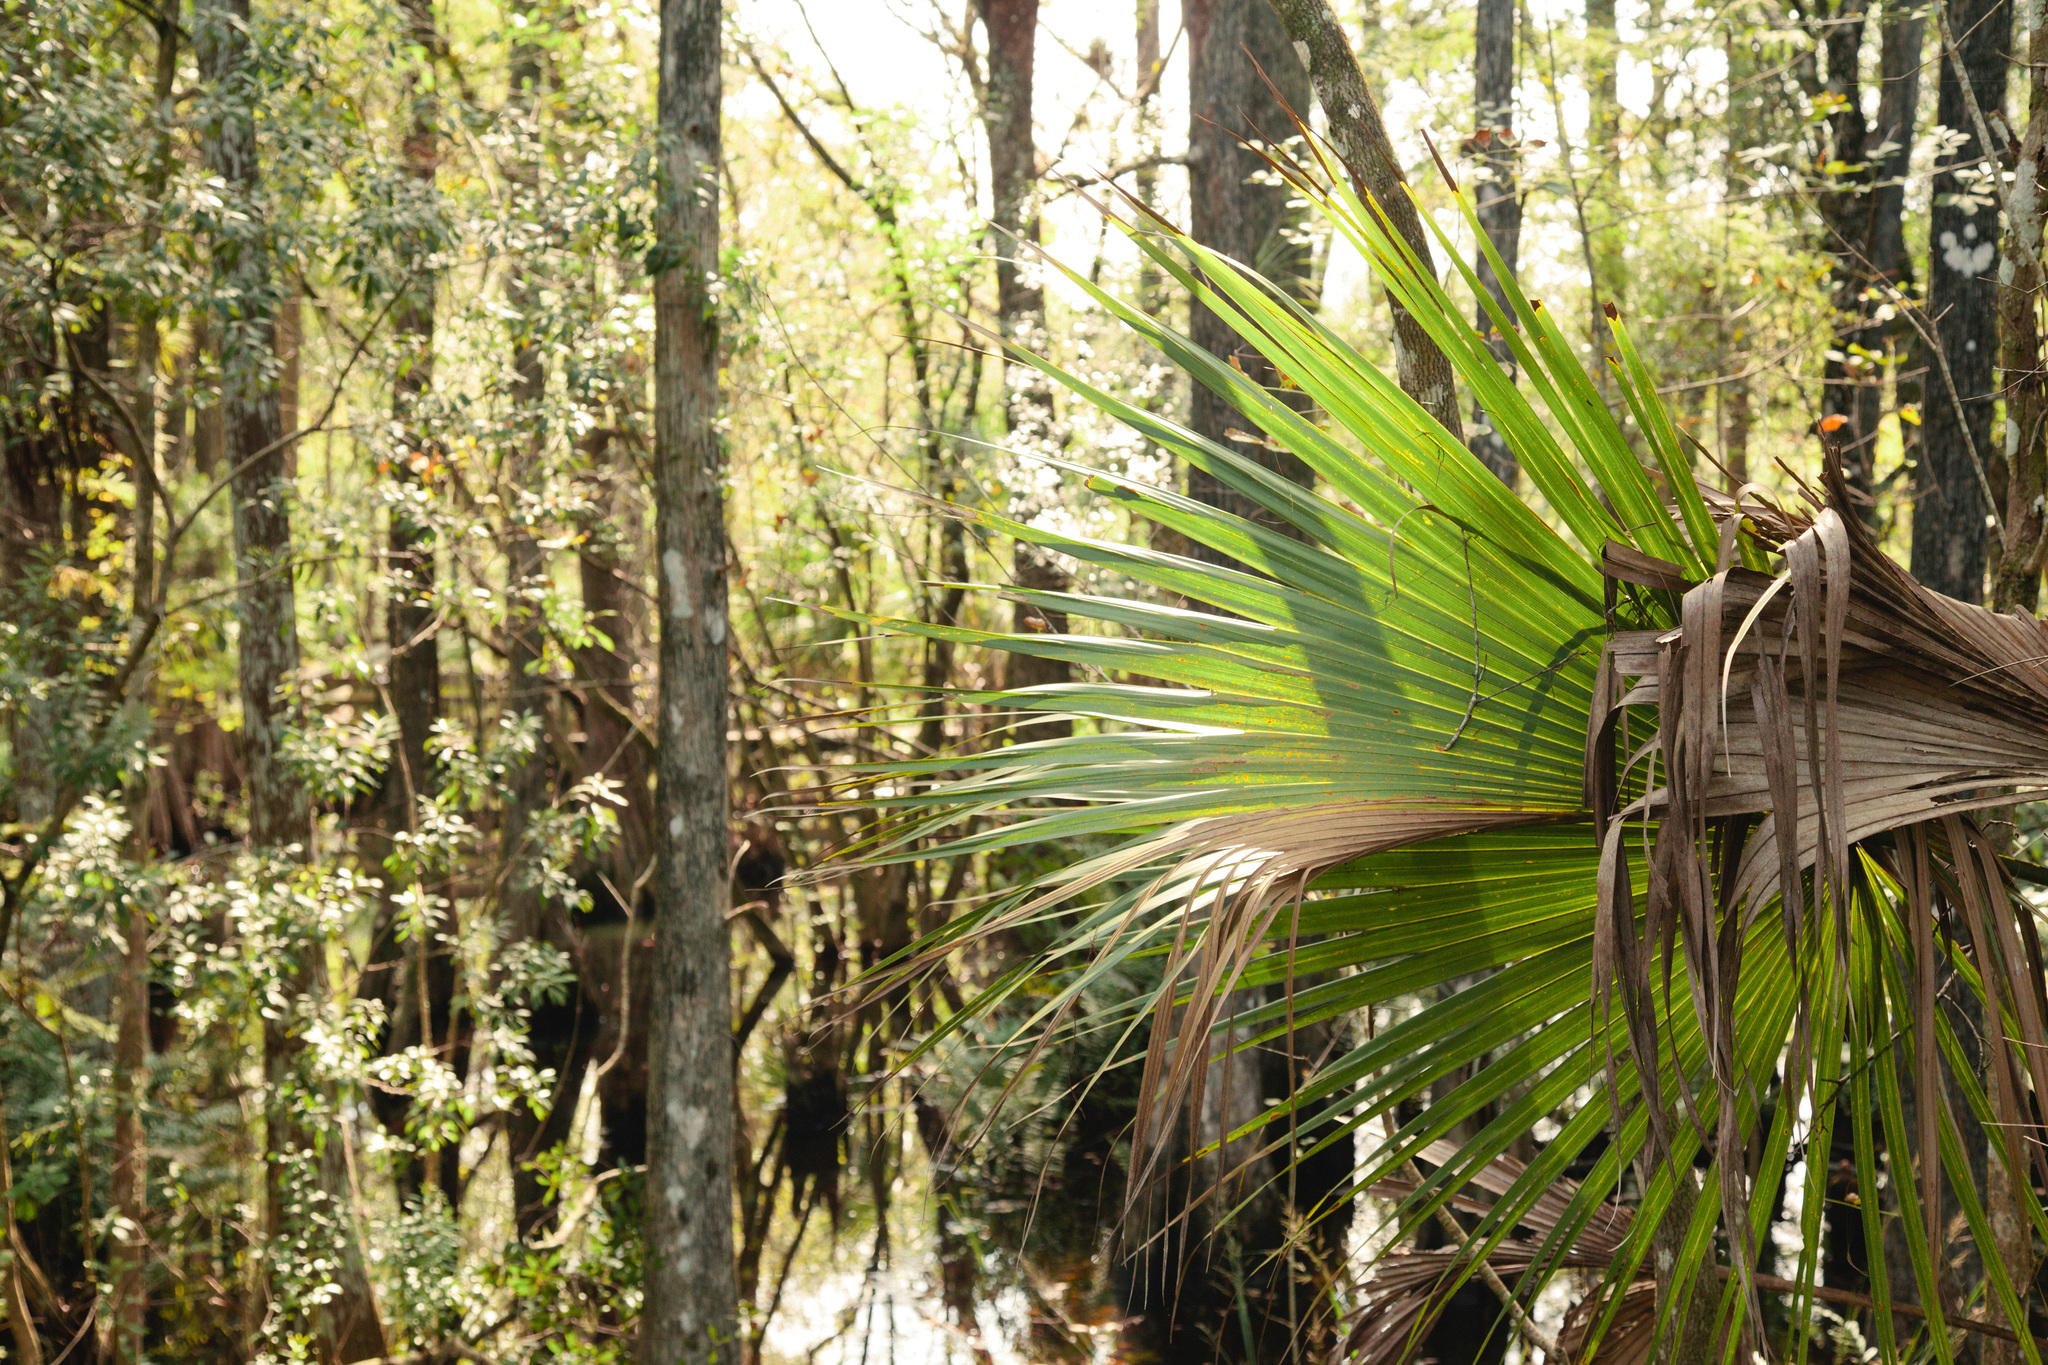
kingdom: Plantae
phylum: Tracheophyta
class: Liliopsida
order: Arecales
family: Arecaceae
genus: Sabal
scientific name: Sabal palmetto
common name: Blue palmetto
